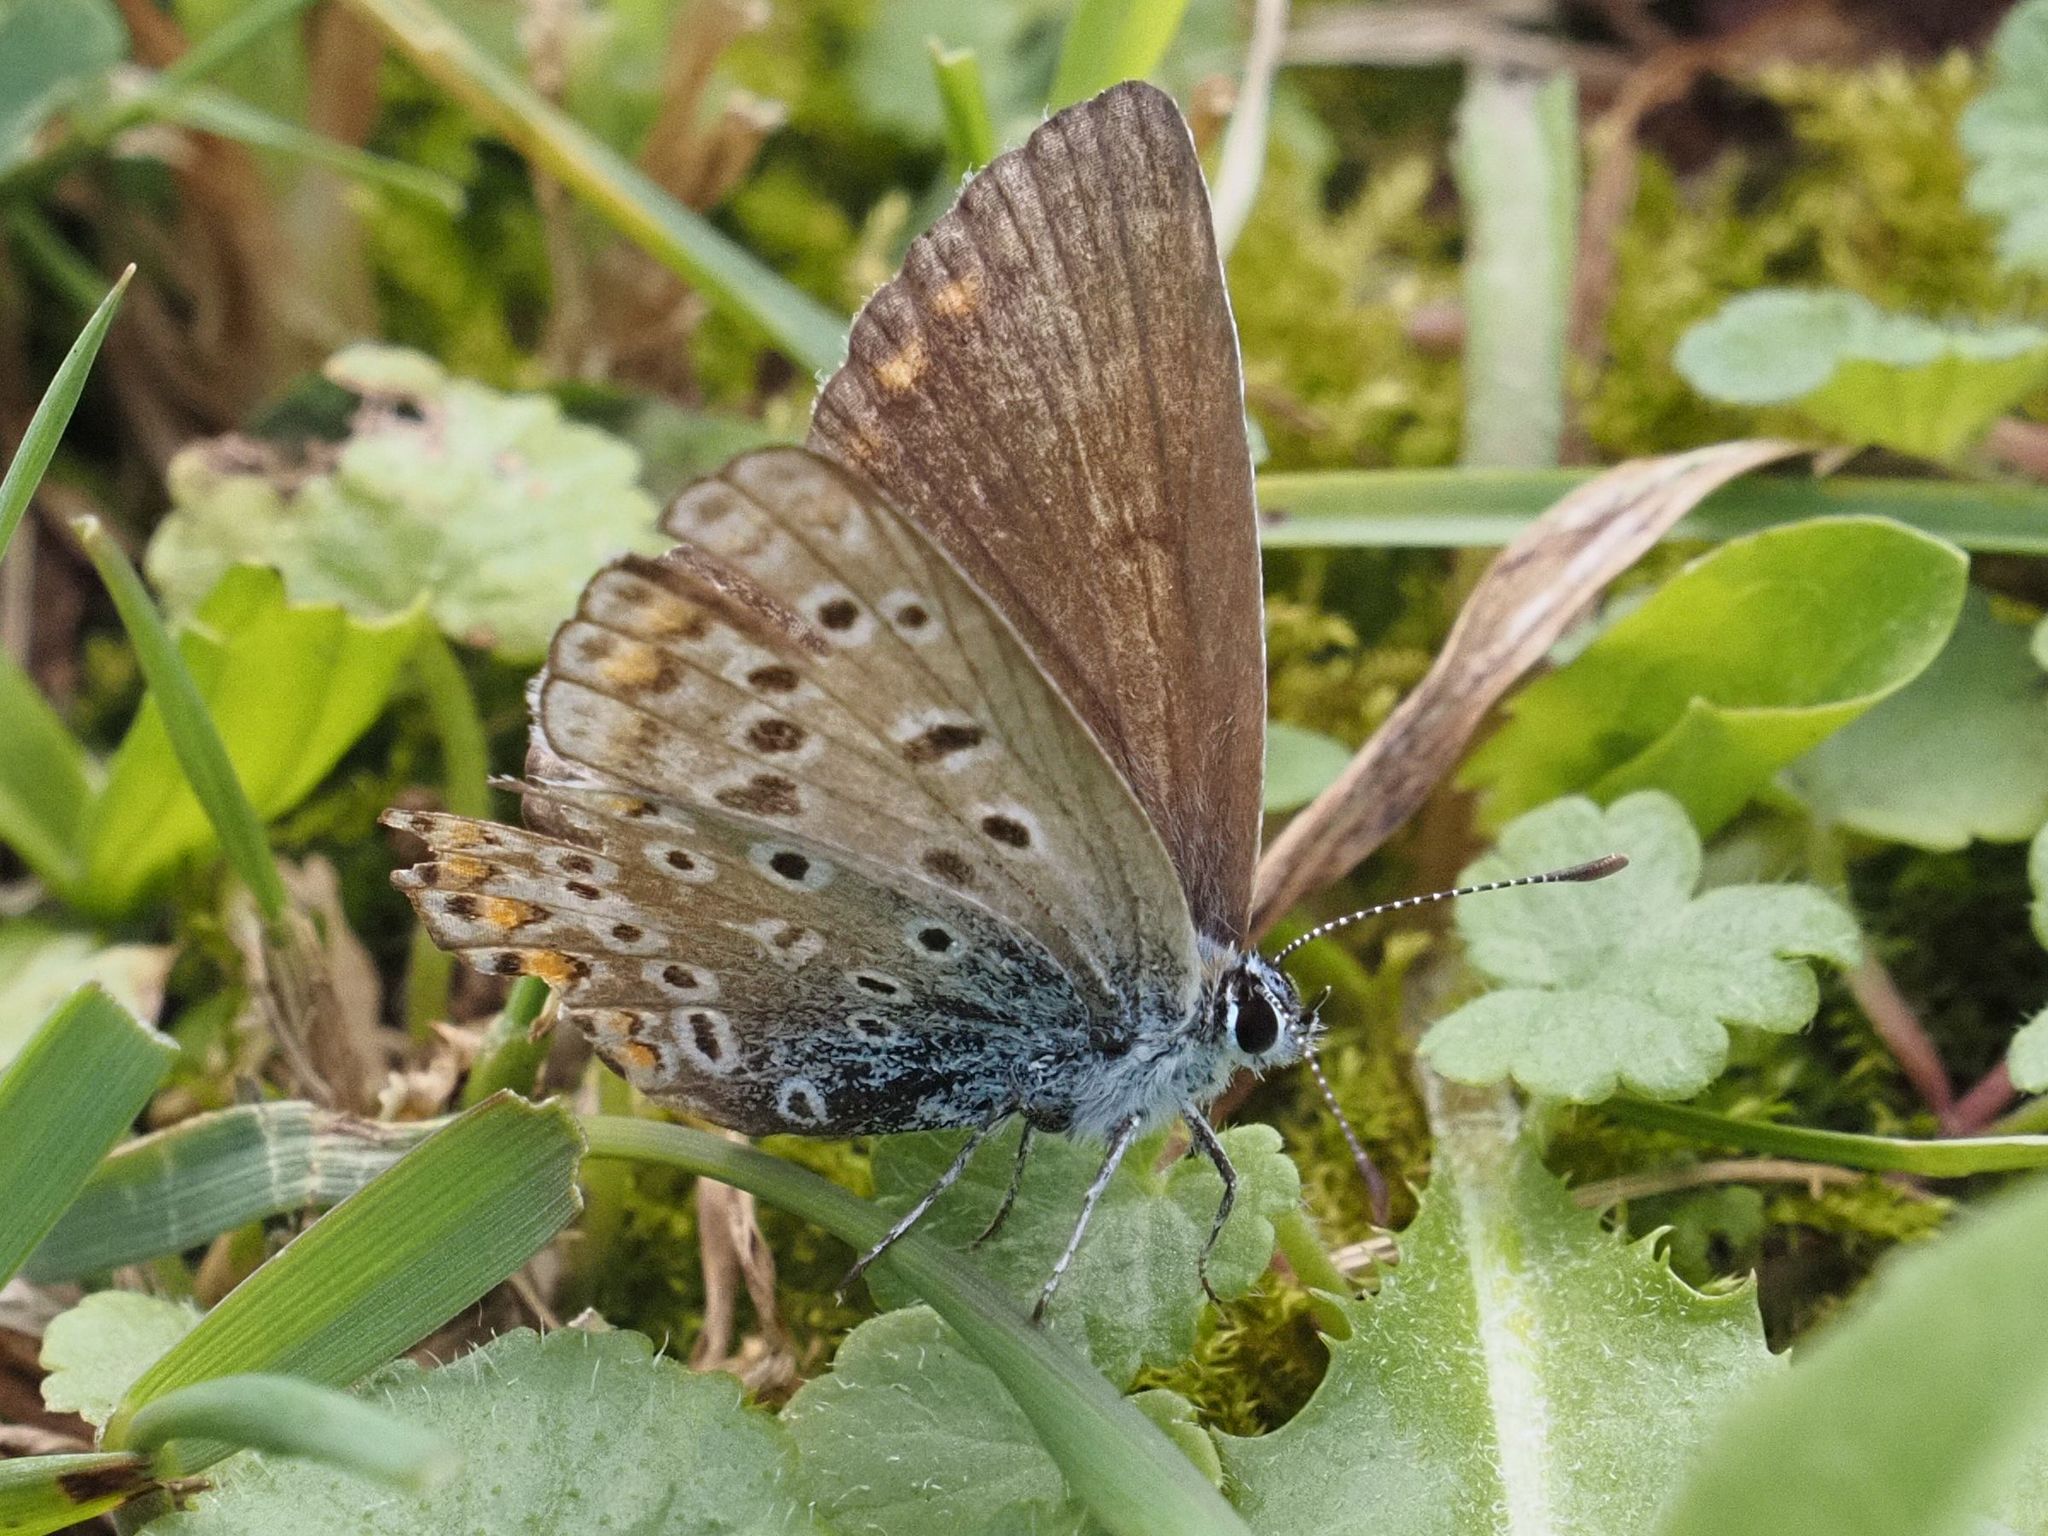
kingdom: Animalia
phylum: Arthropoda
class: Insecta
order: Lepidoptera
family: Lycaenidae
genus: Polyommatus
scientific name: Polyommatus icarus
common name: Common blue
